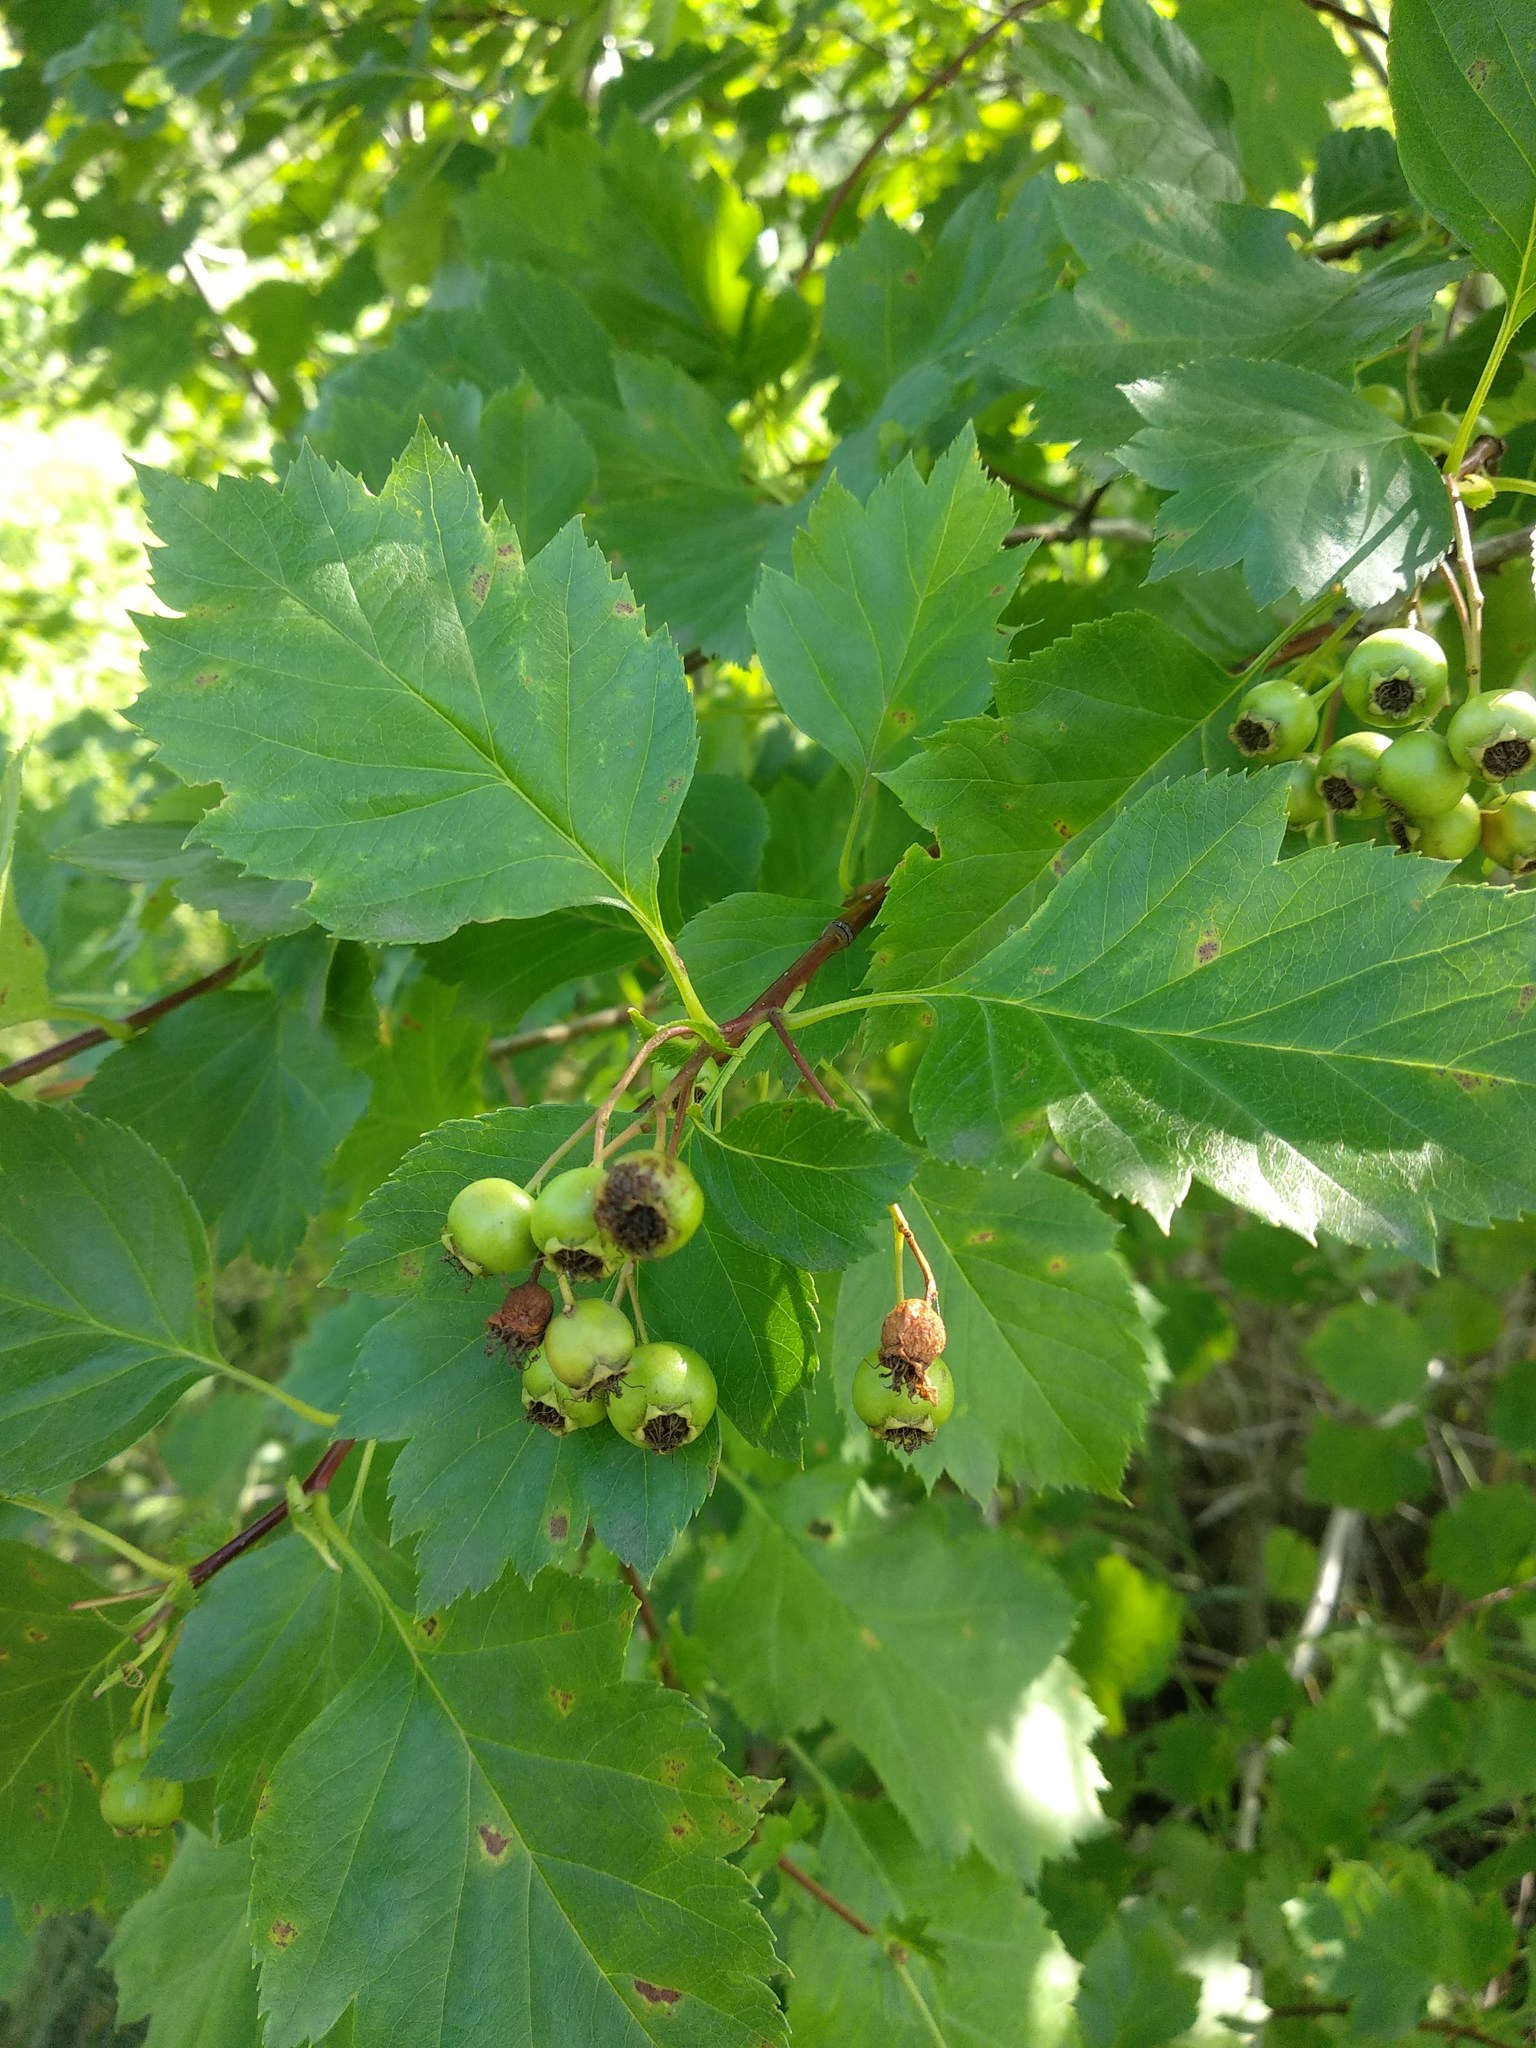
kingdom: Plantae
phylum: Tracheophyta
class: Magnoliopsida
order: Rosales
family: Rosaceae
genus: Crataegus
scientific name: Crataegus sanguinea
